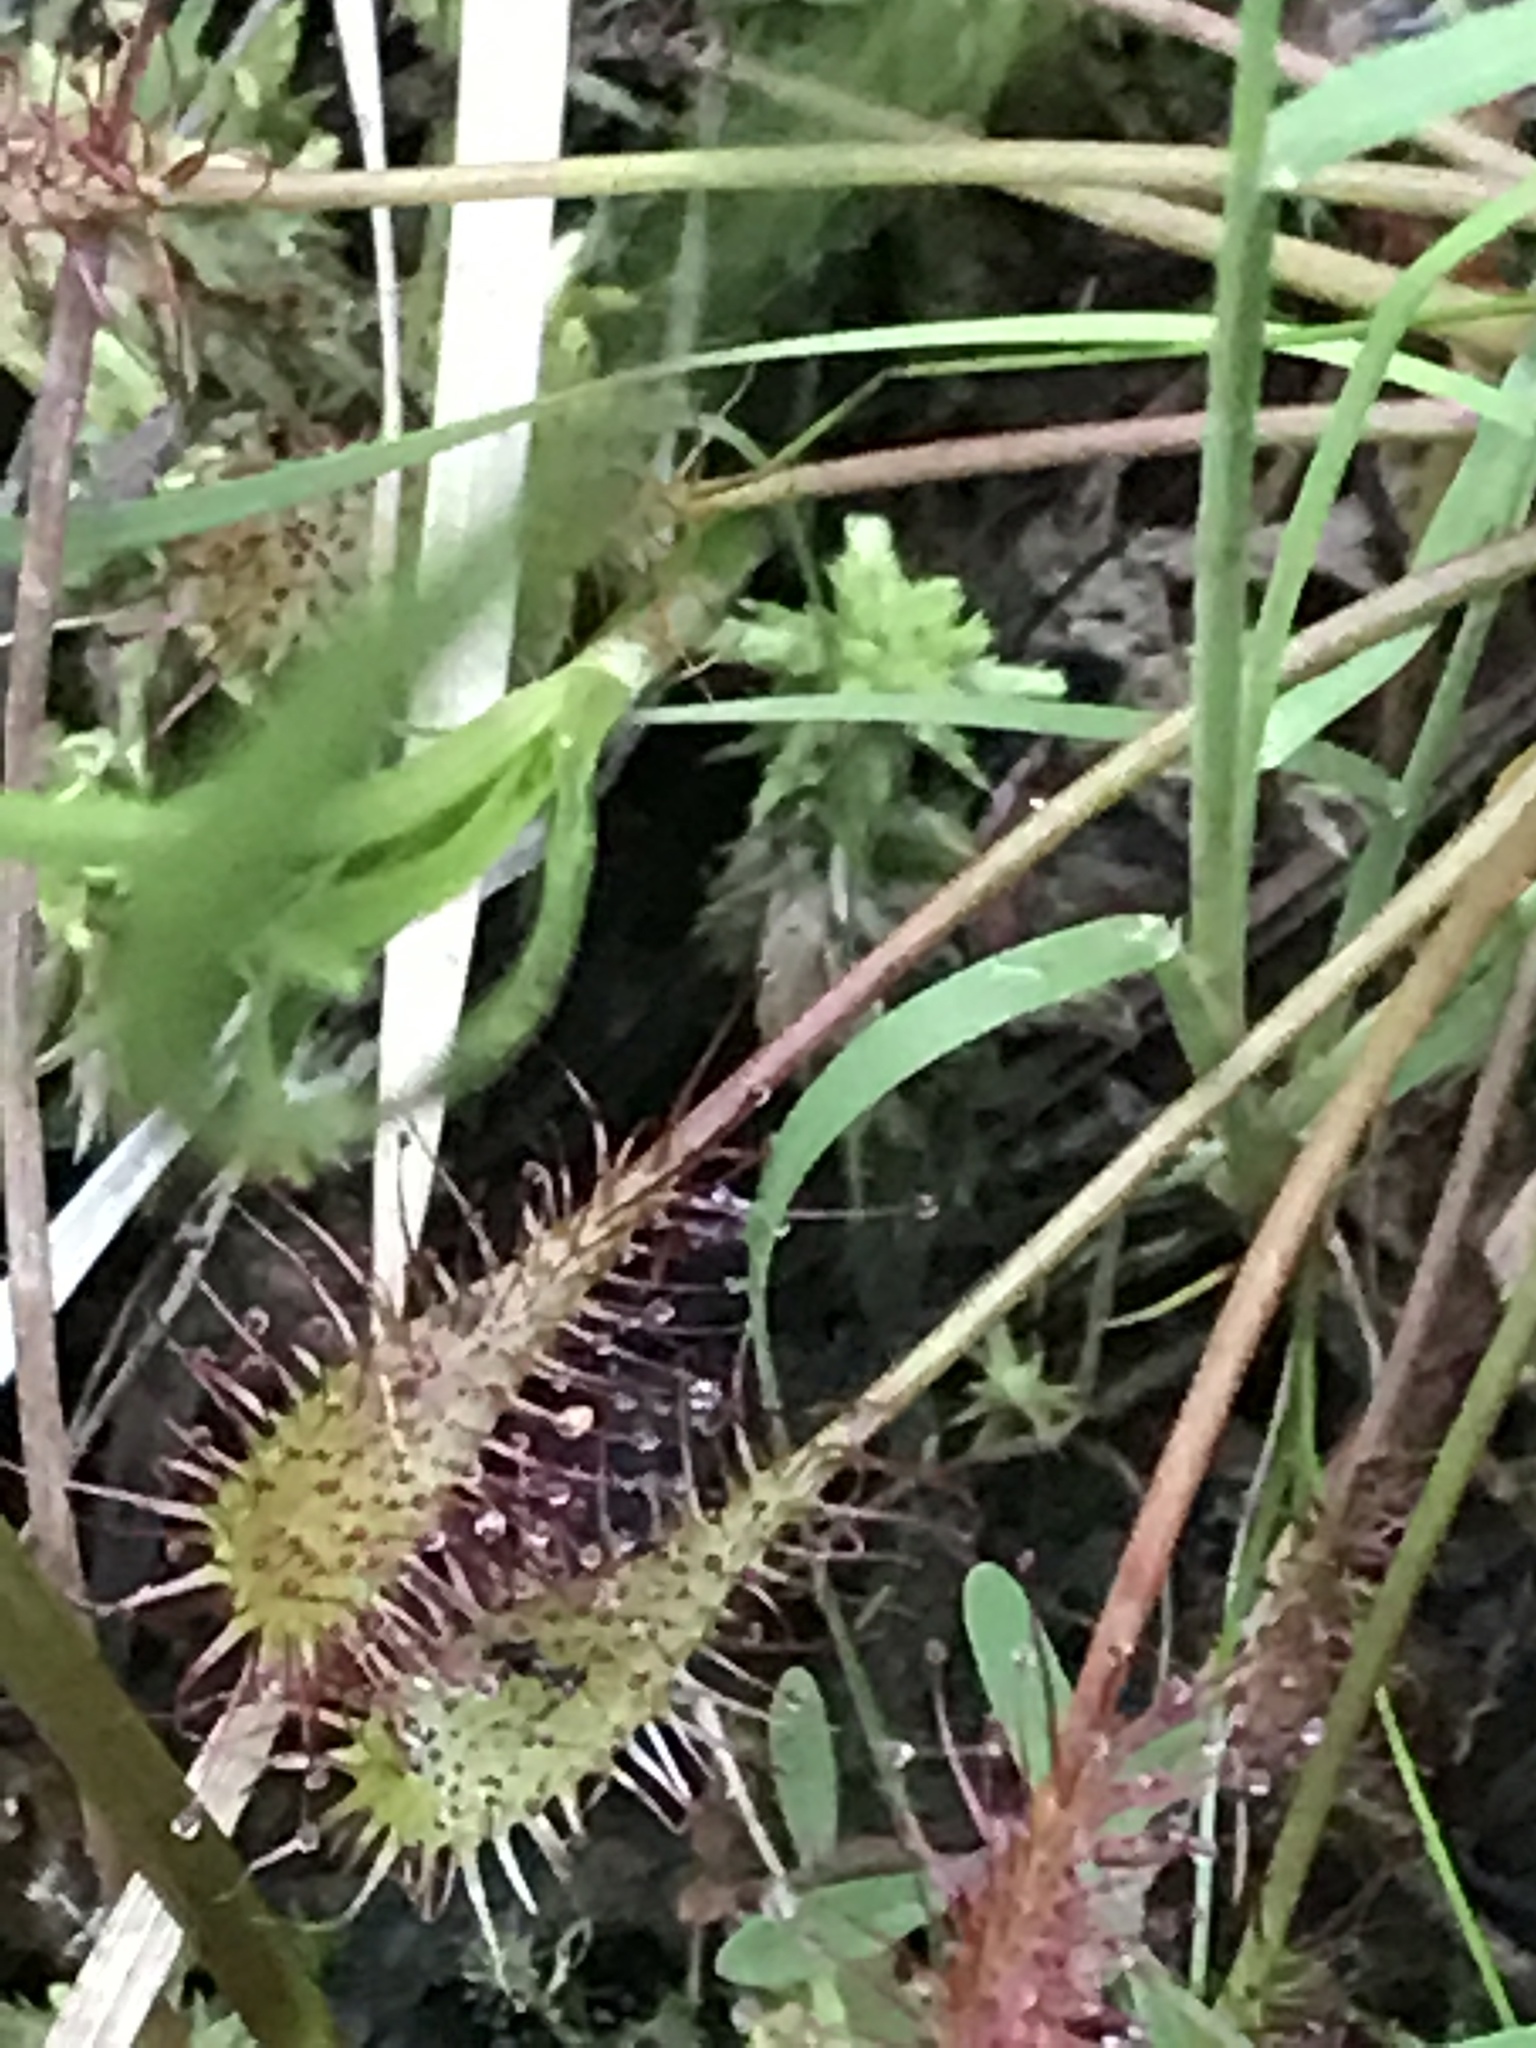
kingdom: Plantae
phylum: Tracheophyta
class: Magnoliopsida
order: Caryophyllales
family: Droseraceae
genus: Drosera
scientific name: Drosera intermedia
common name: Oblong-leaved sundew
